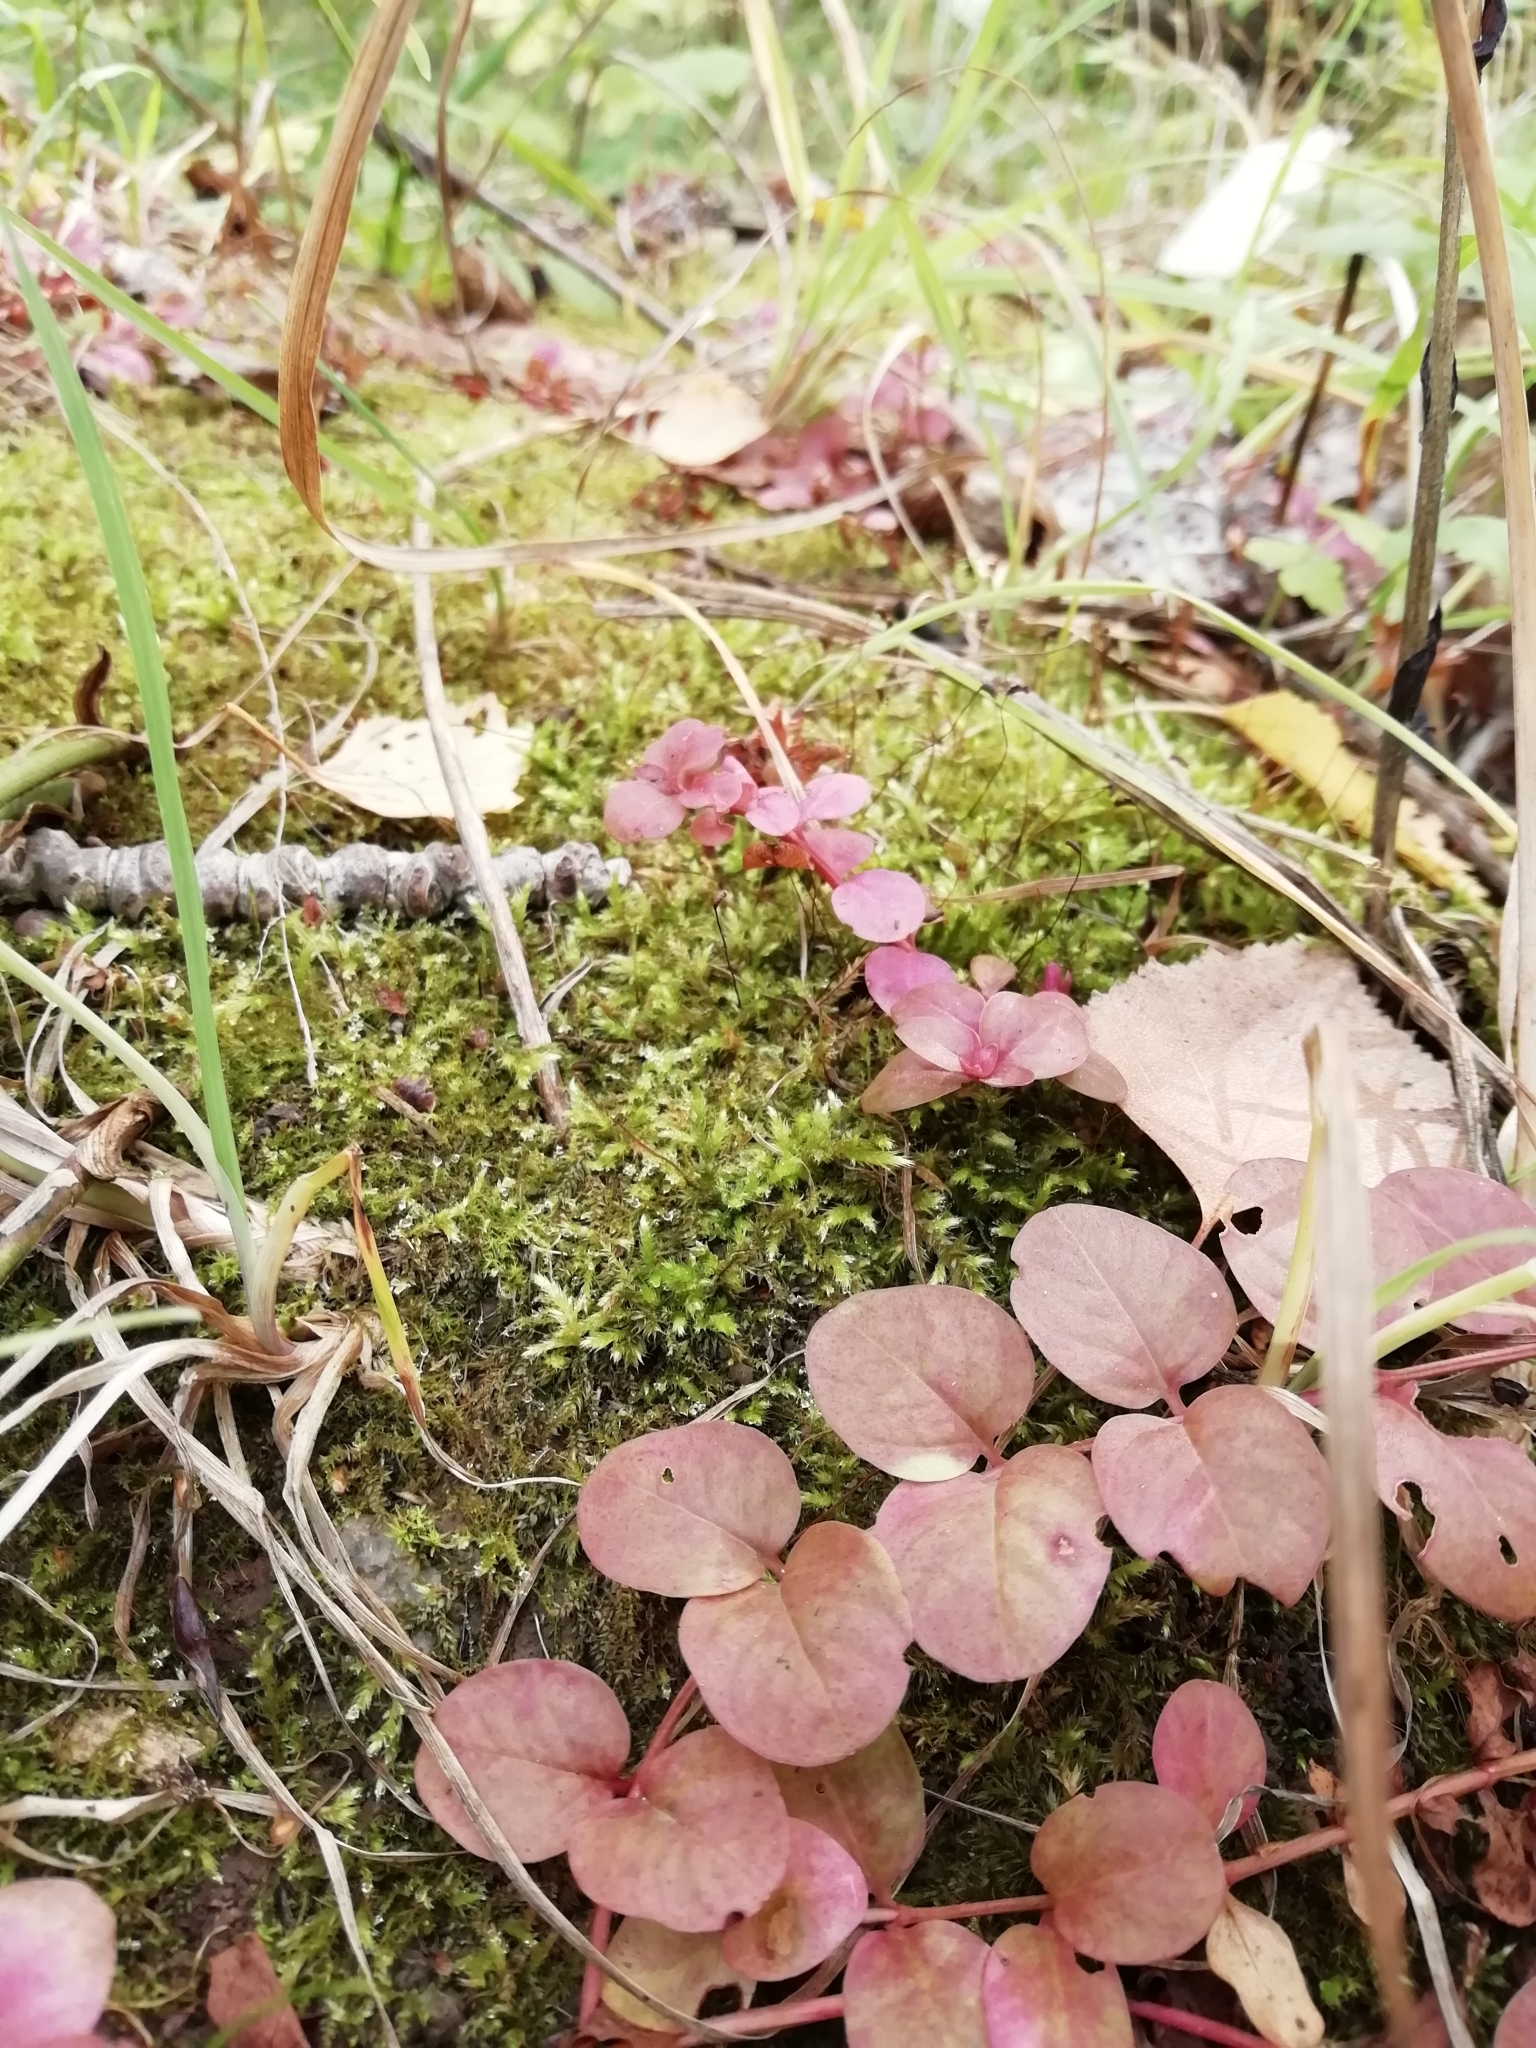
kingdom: Plantae
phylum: Tracheophyta
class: Magnoliopsida
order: Ericales
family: Primulaceae
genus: Lysimachia
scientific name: Lysimachia nummularia
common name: Moneywort
